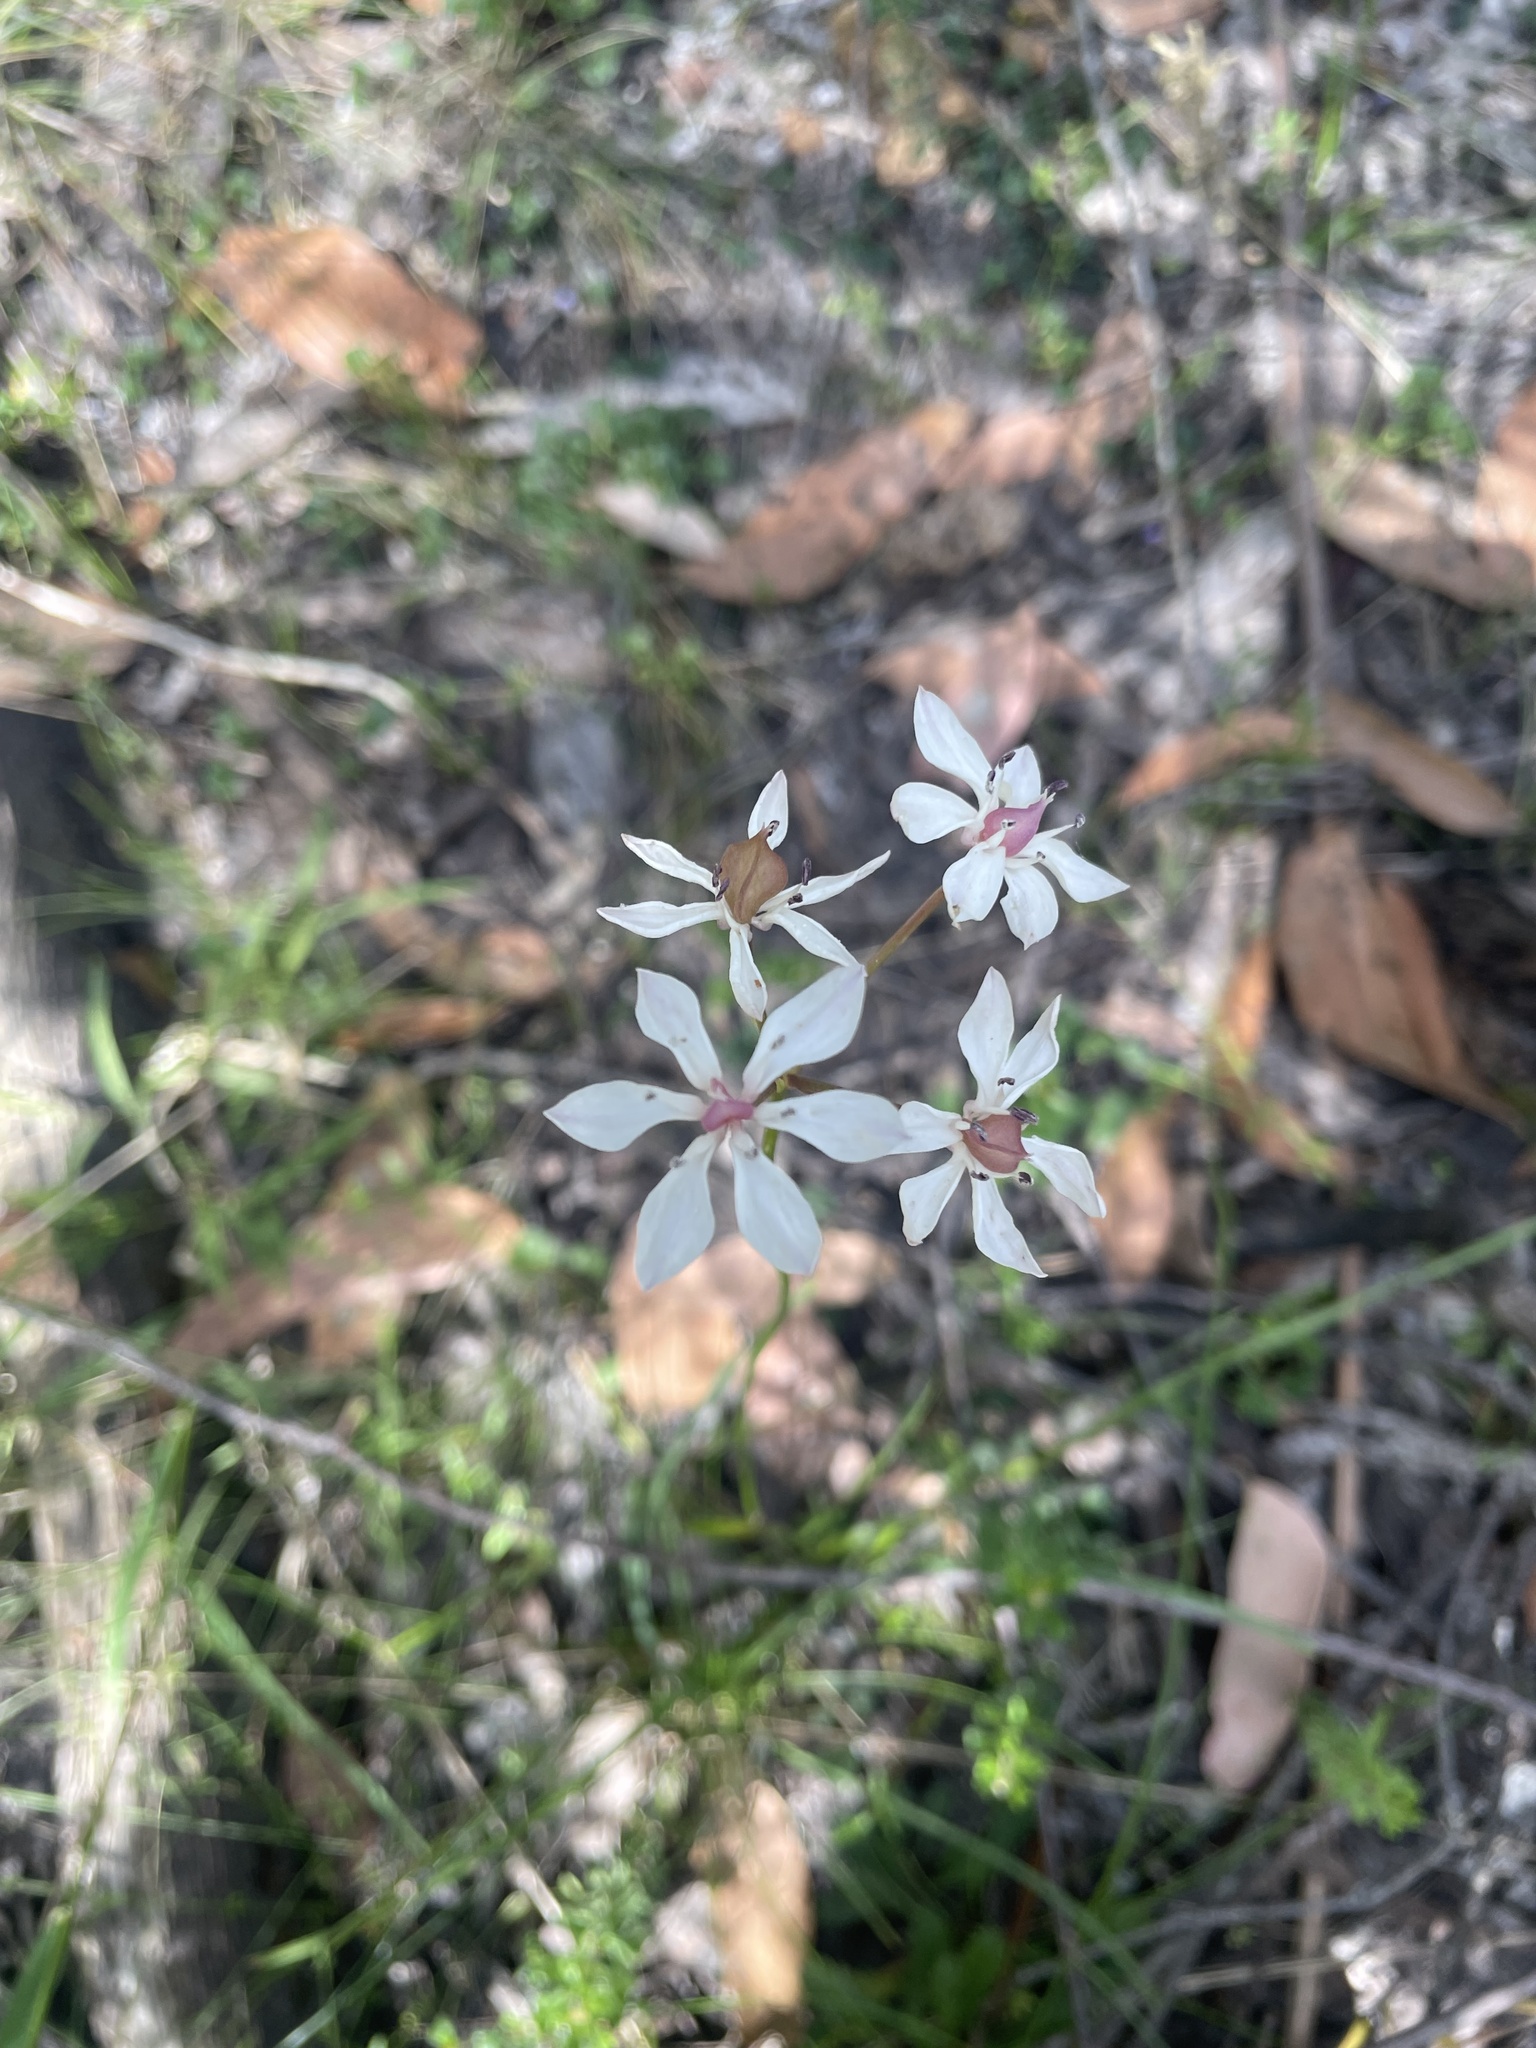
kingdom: Plantae
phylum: Tracheophyta
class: Liliopsida
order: Liliales
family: Colchicaceae
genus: Burchardia
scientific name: Burchardia umbellata
